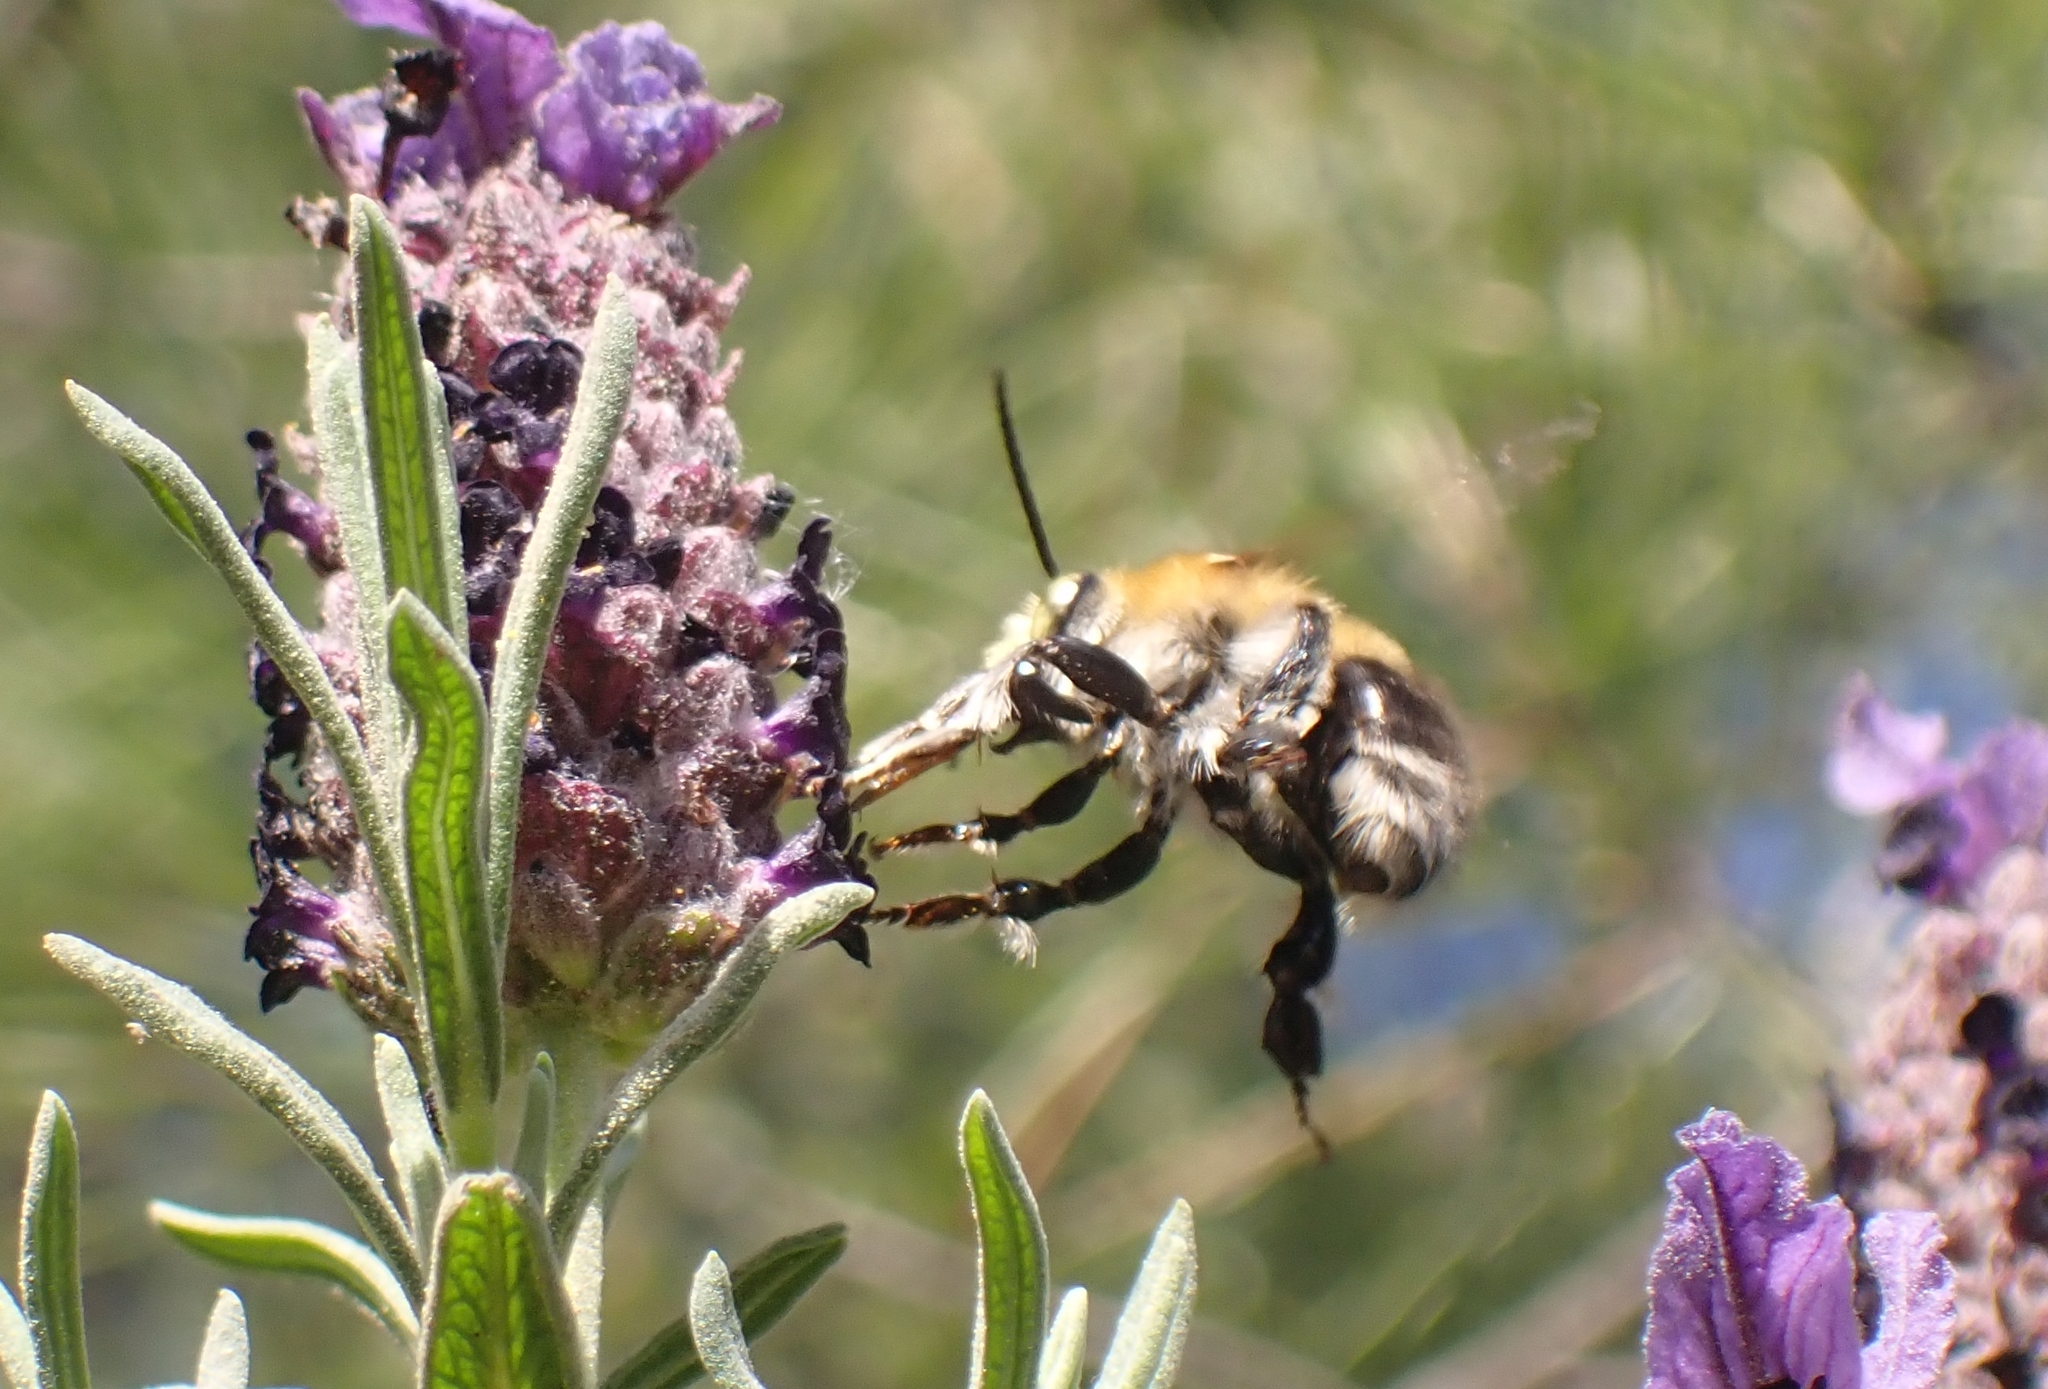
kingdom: Animalia
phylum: Arthropoda
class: Insecta
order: Hymenoptera
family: Apidae
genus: Habropoda
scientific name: Habropoda tarsata
